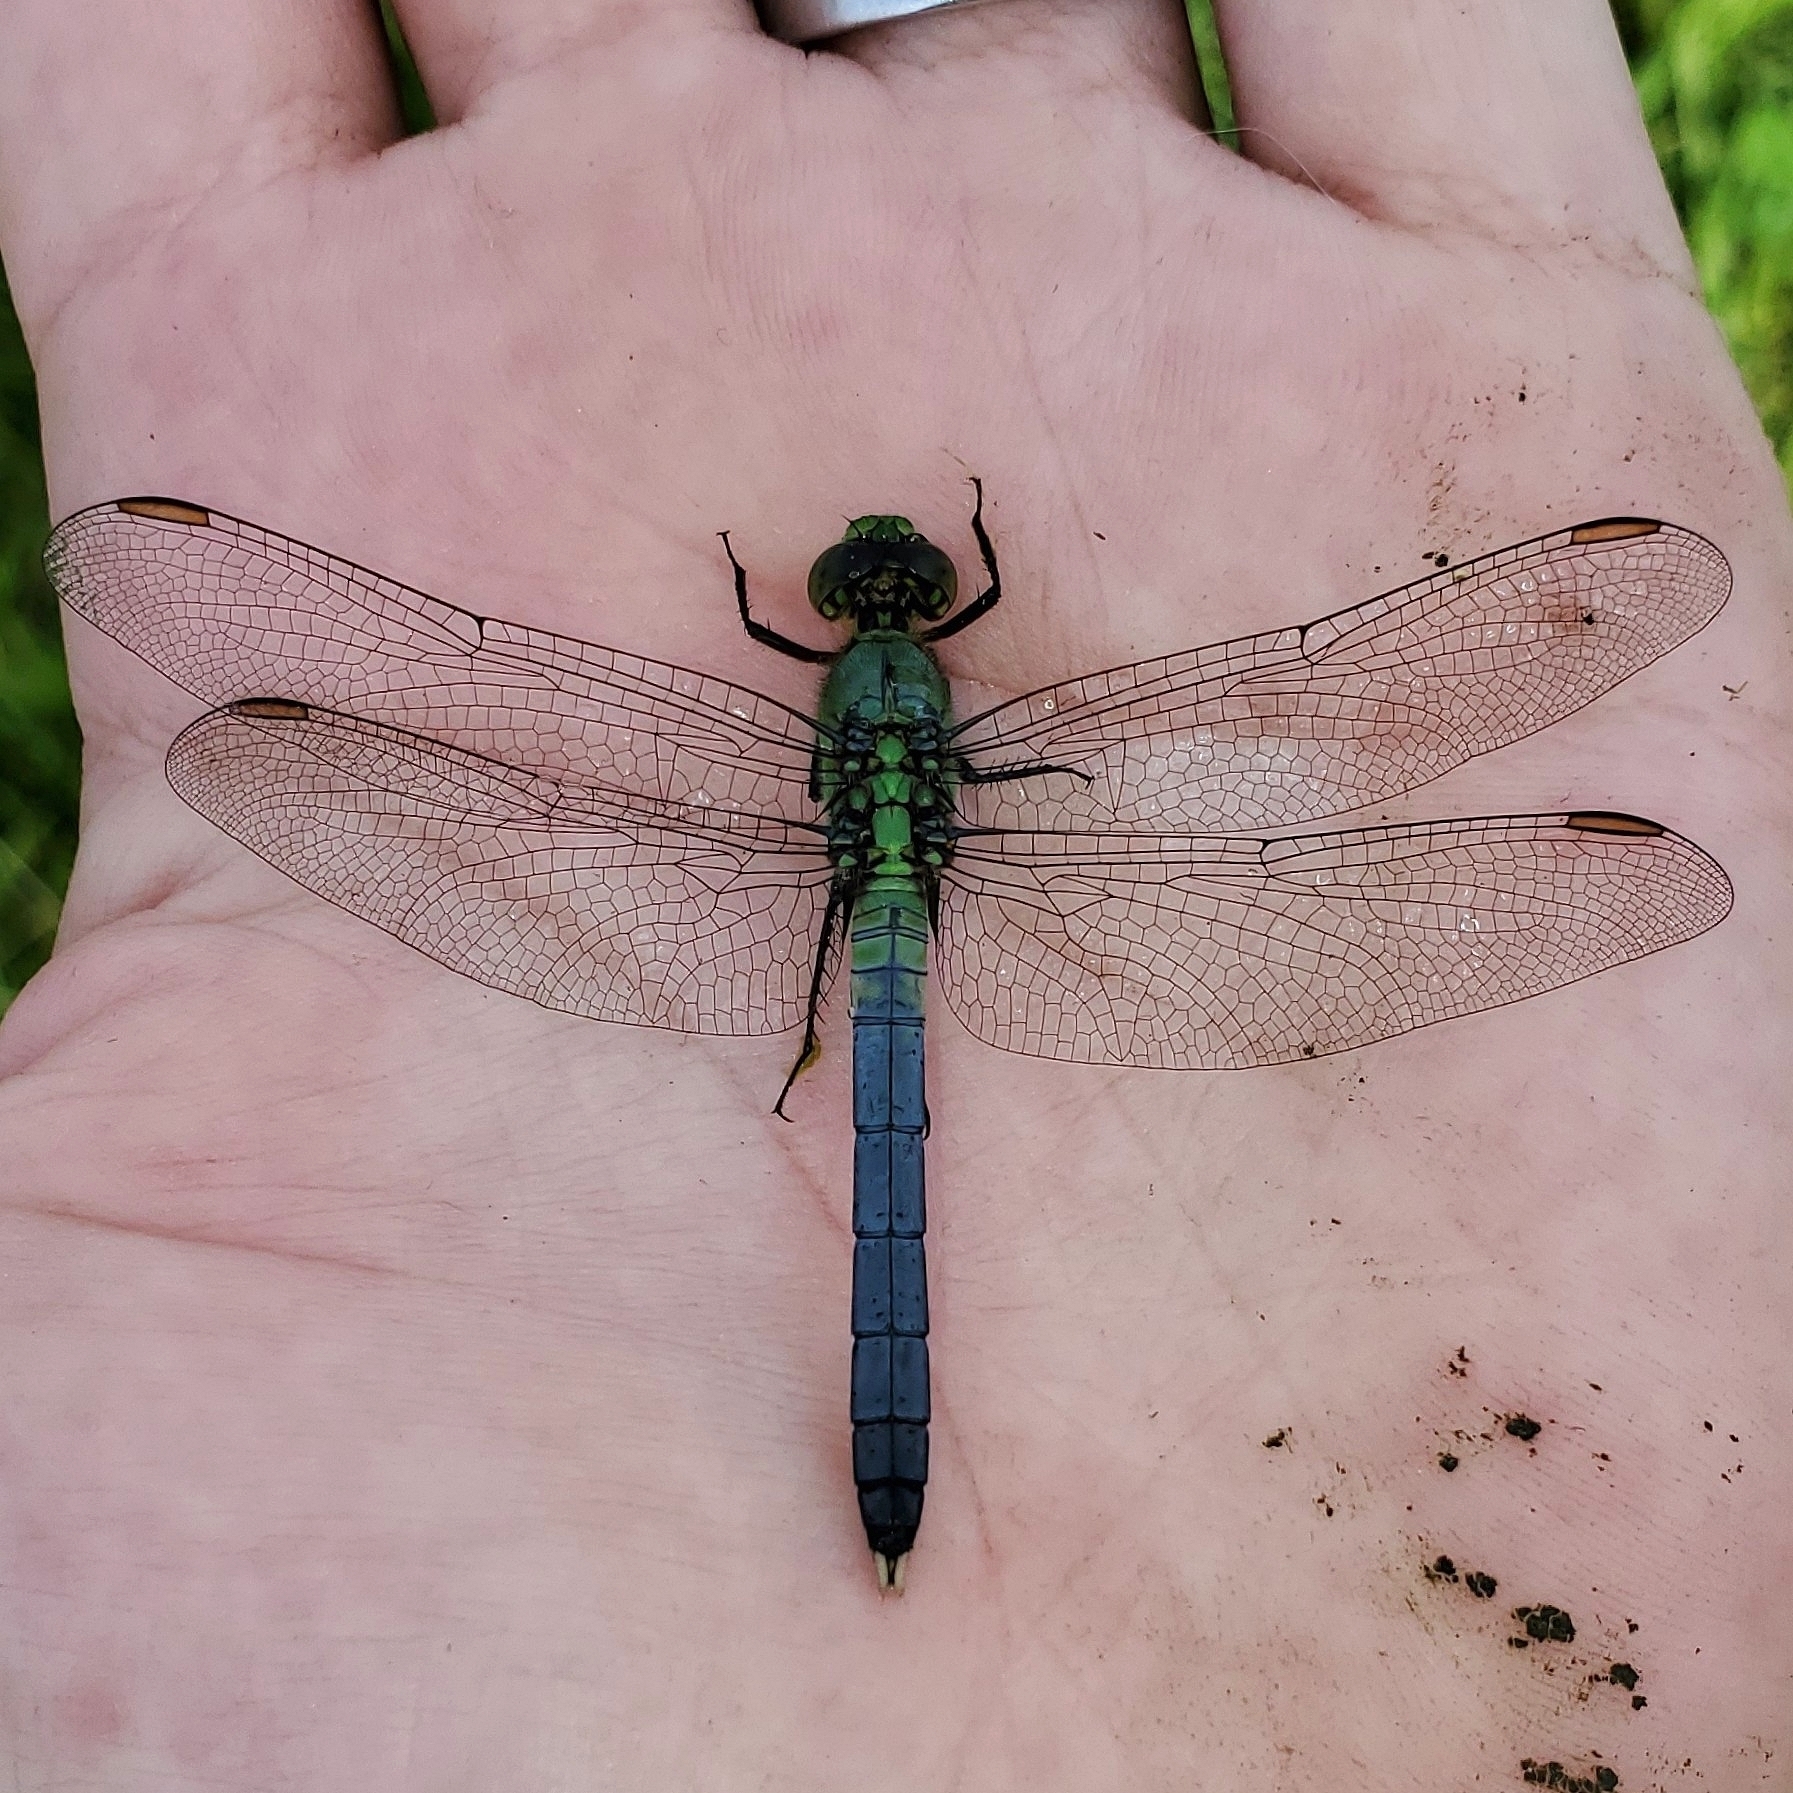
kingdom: Animalia
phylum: Arthropoda
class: Insecta
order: Odonata
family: Libellulidae
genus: Erythemis
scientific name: Erythemis simplicicollis
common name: Eastern pondhawk
